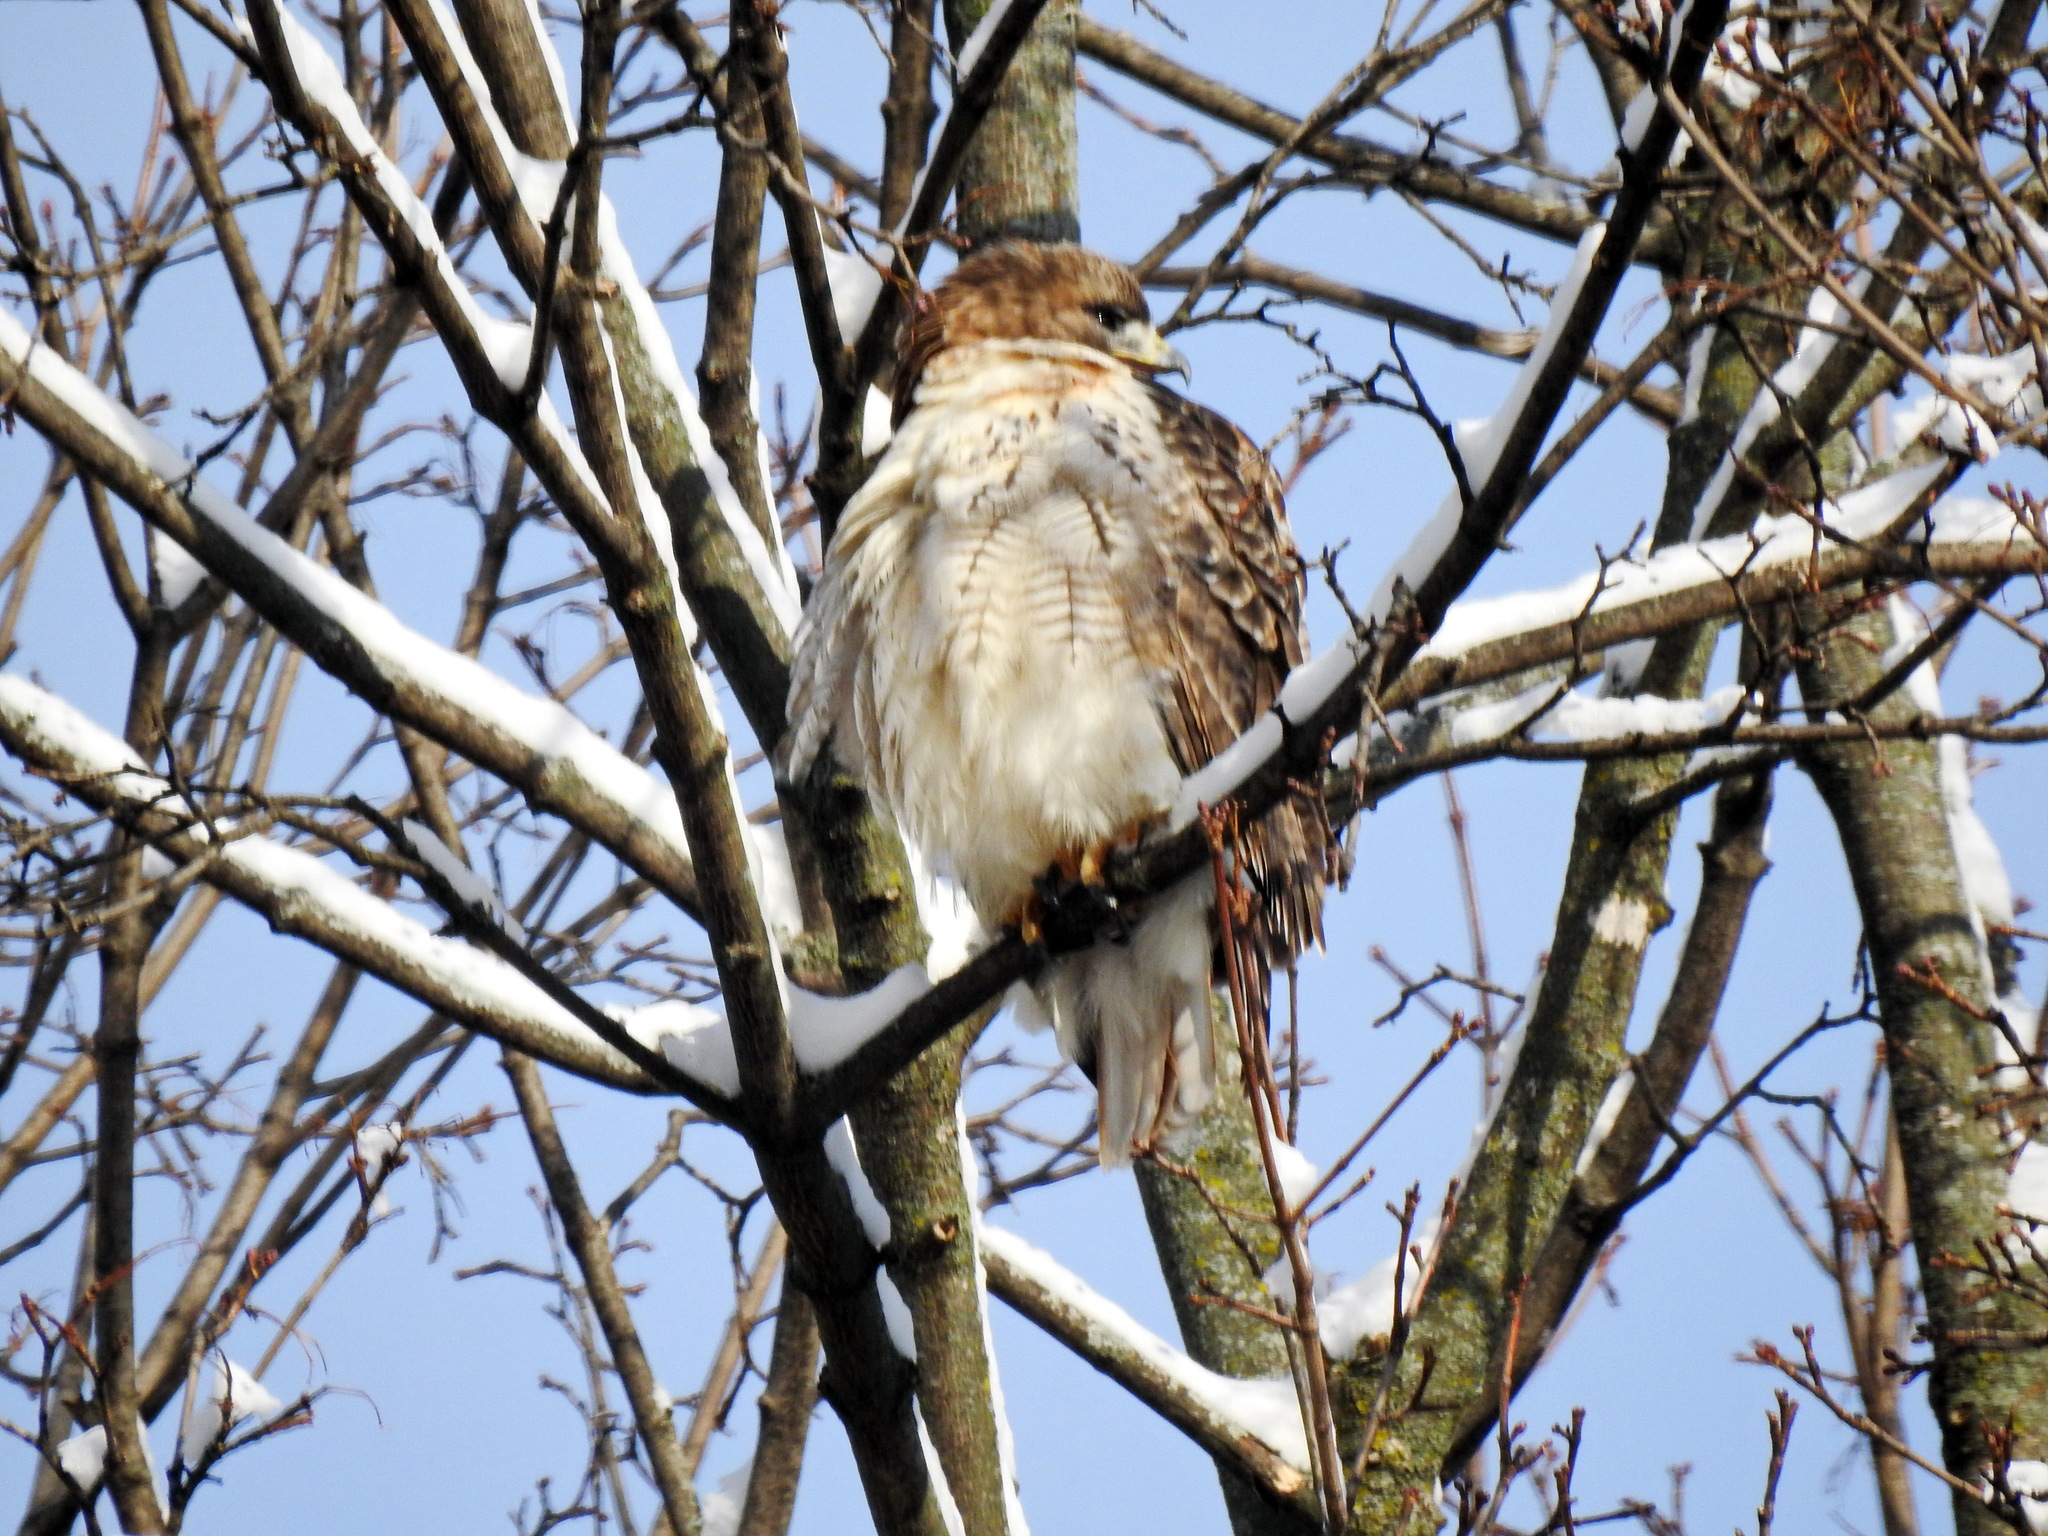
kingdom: Animalia
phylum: Chordata
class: Aves
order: Accipitriformes
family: Accipitridae
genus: Buteo
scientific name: Buteo jamaicensis
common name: Red-tailed hawk
